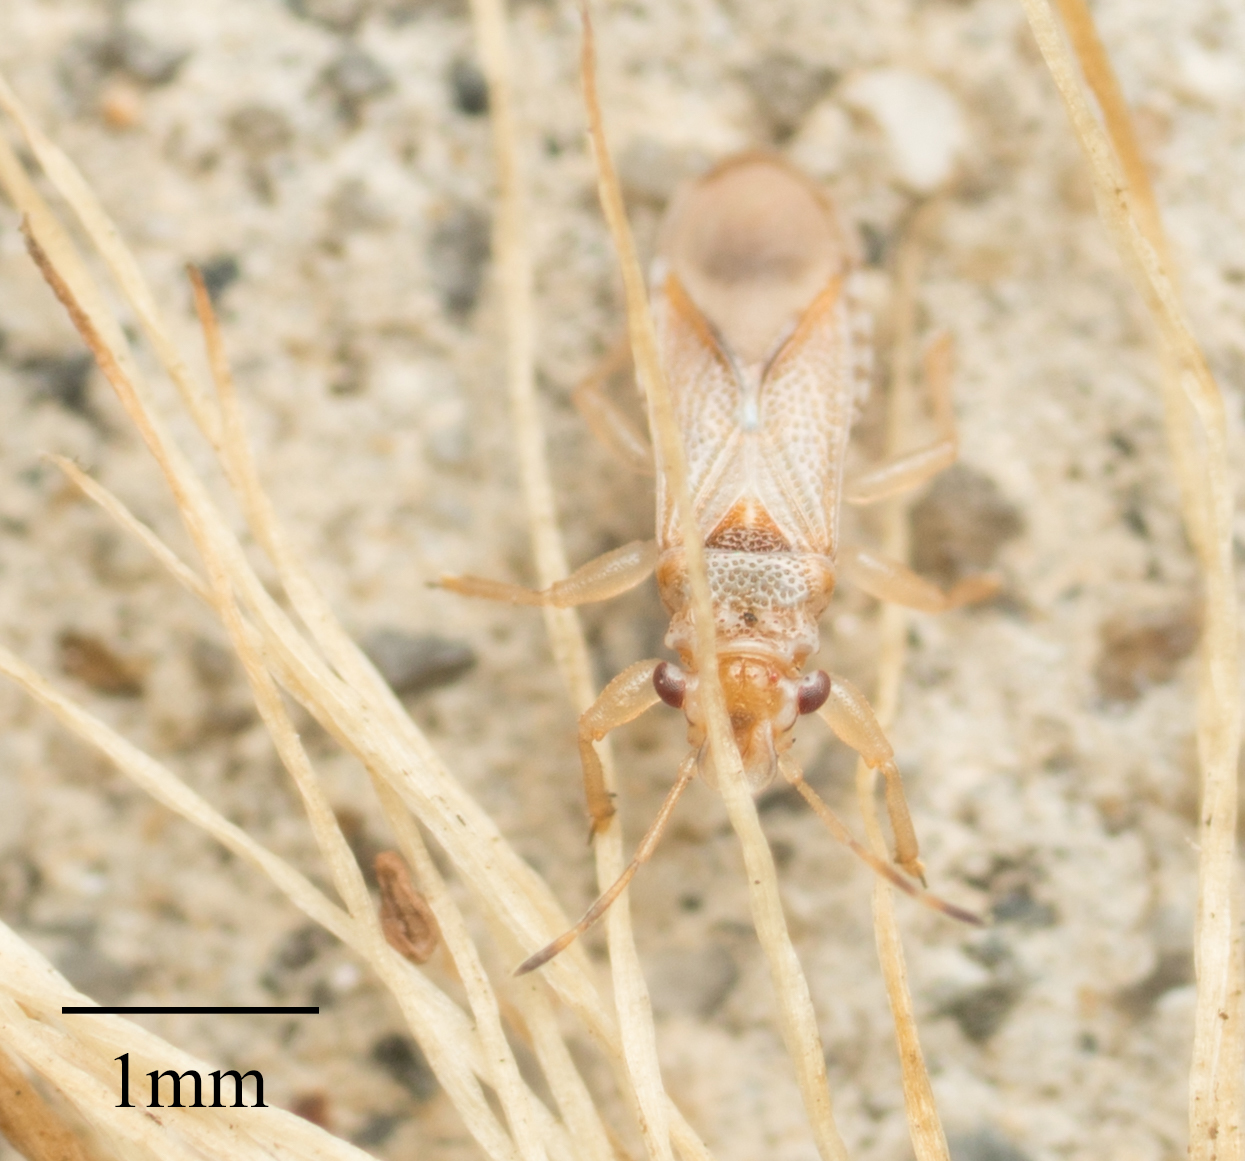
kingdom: Animalia
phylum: Arthropoda
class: Insecta
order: Hemiptera
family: Thaumastocoridae
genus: Thaumastocoris
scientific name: Thaumastocoris peregrinus
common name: Bronze bug
